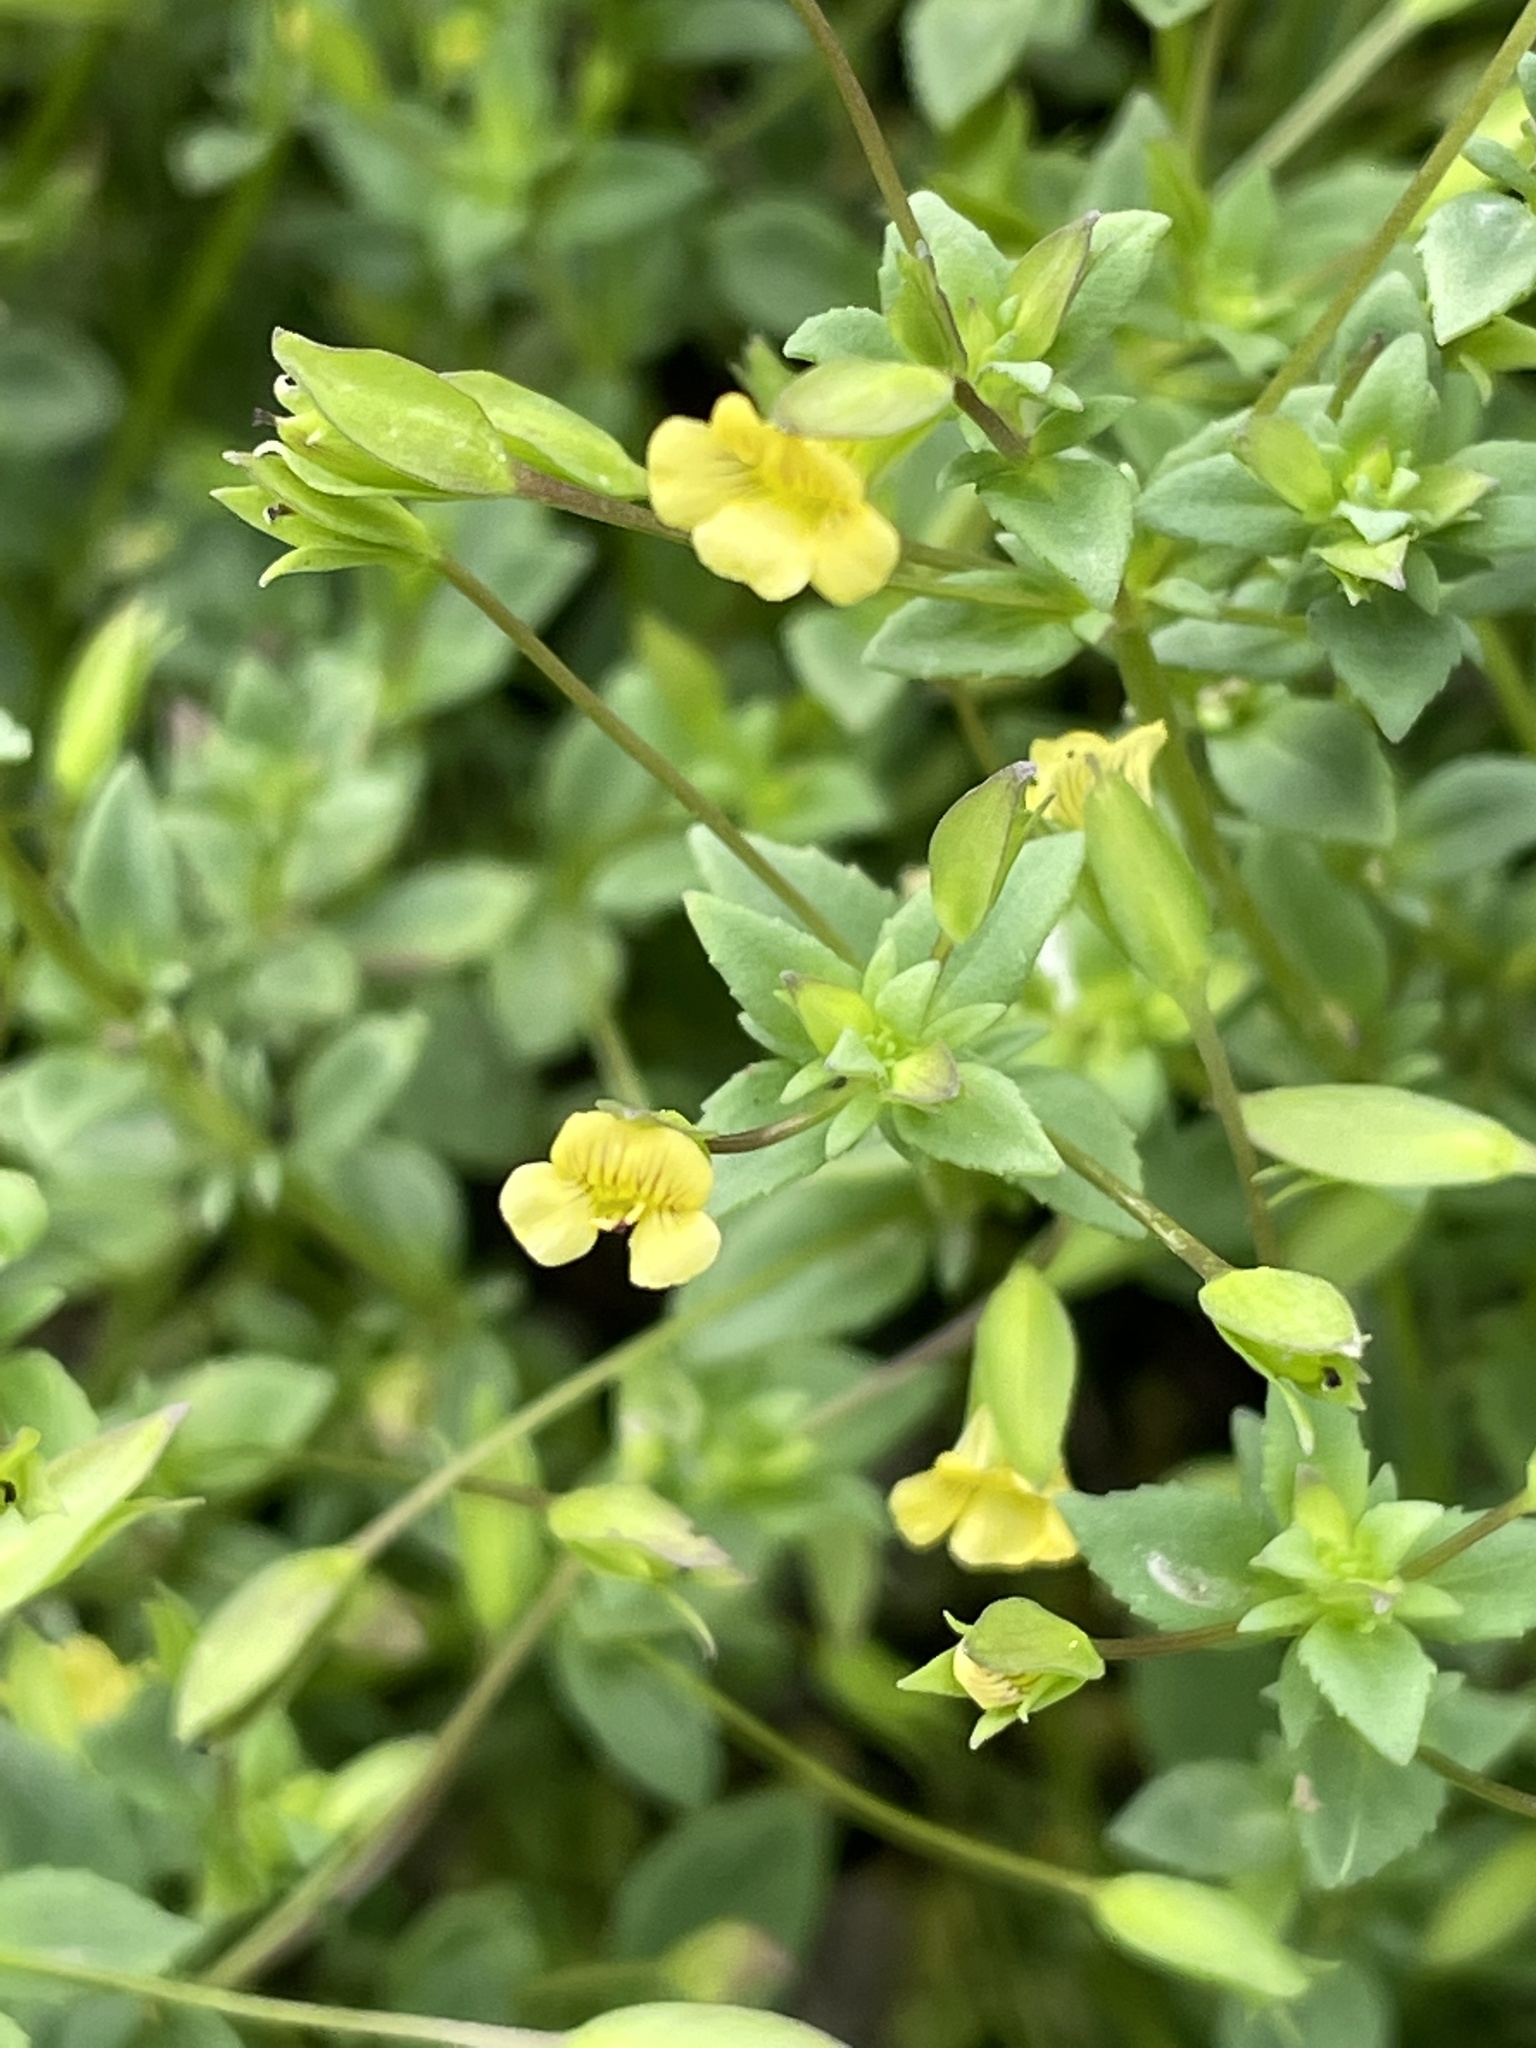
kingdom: Plantae
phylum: Tracheophyta
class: Magnoliopsida
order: Lamiales
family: Plantaginaceae
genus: Mecardonia
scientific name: Mecardonia procumbens
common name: Baby jump-up
